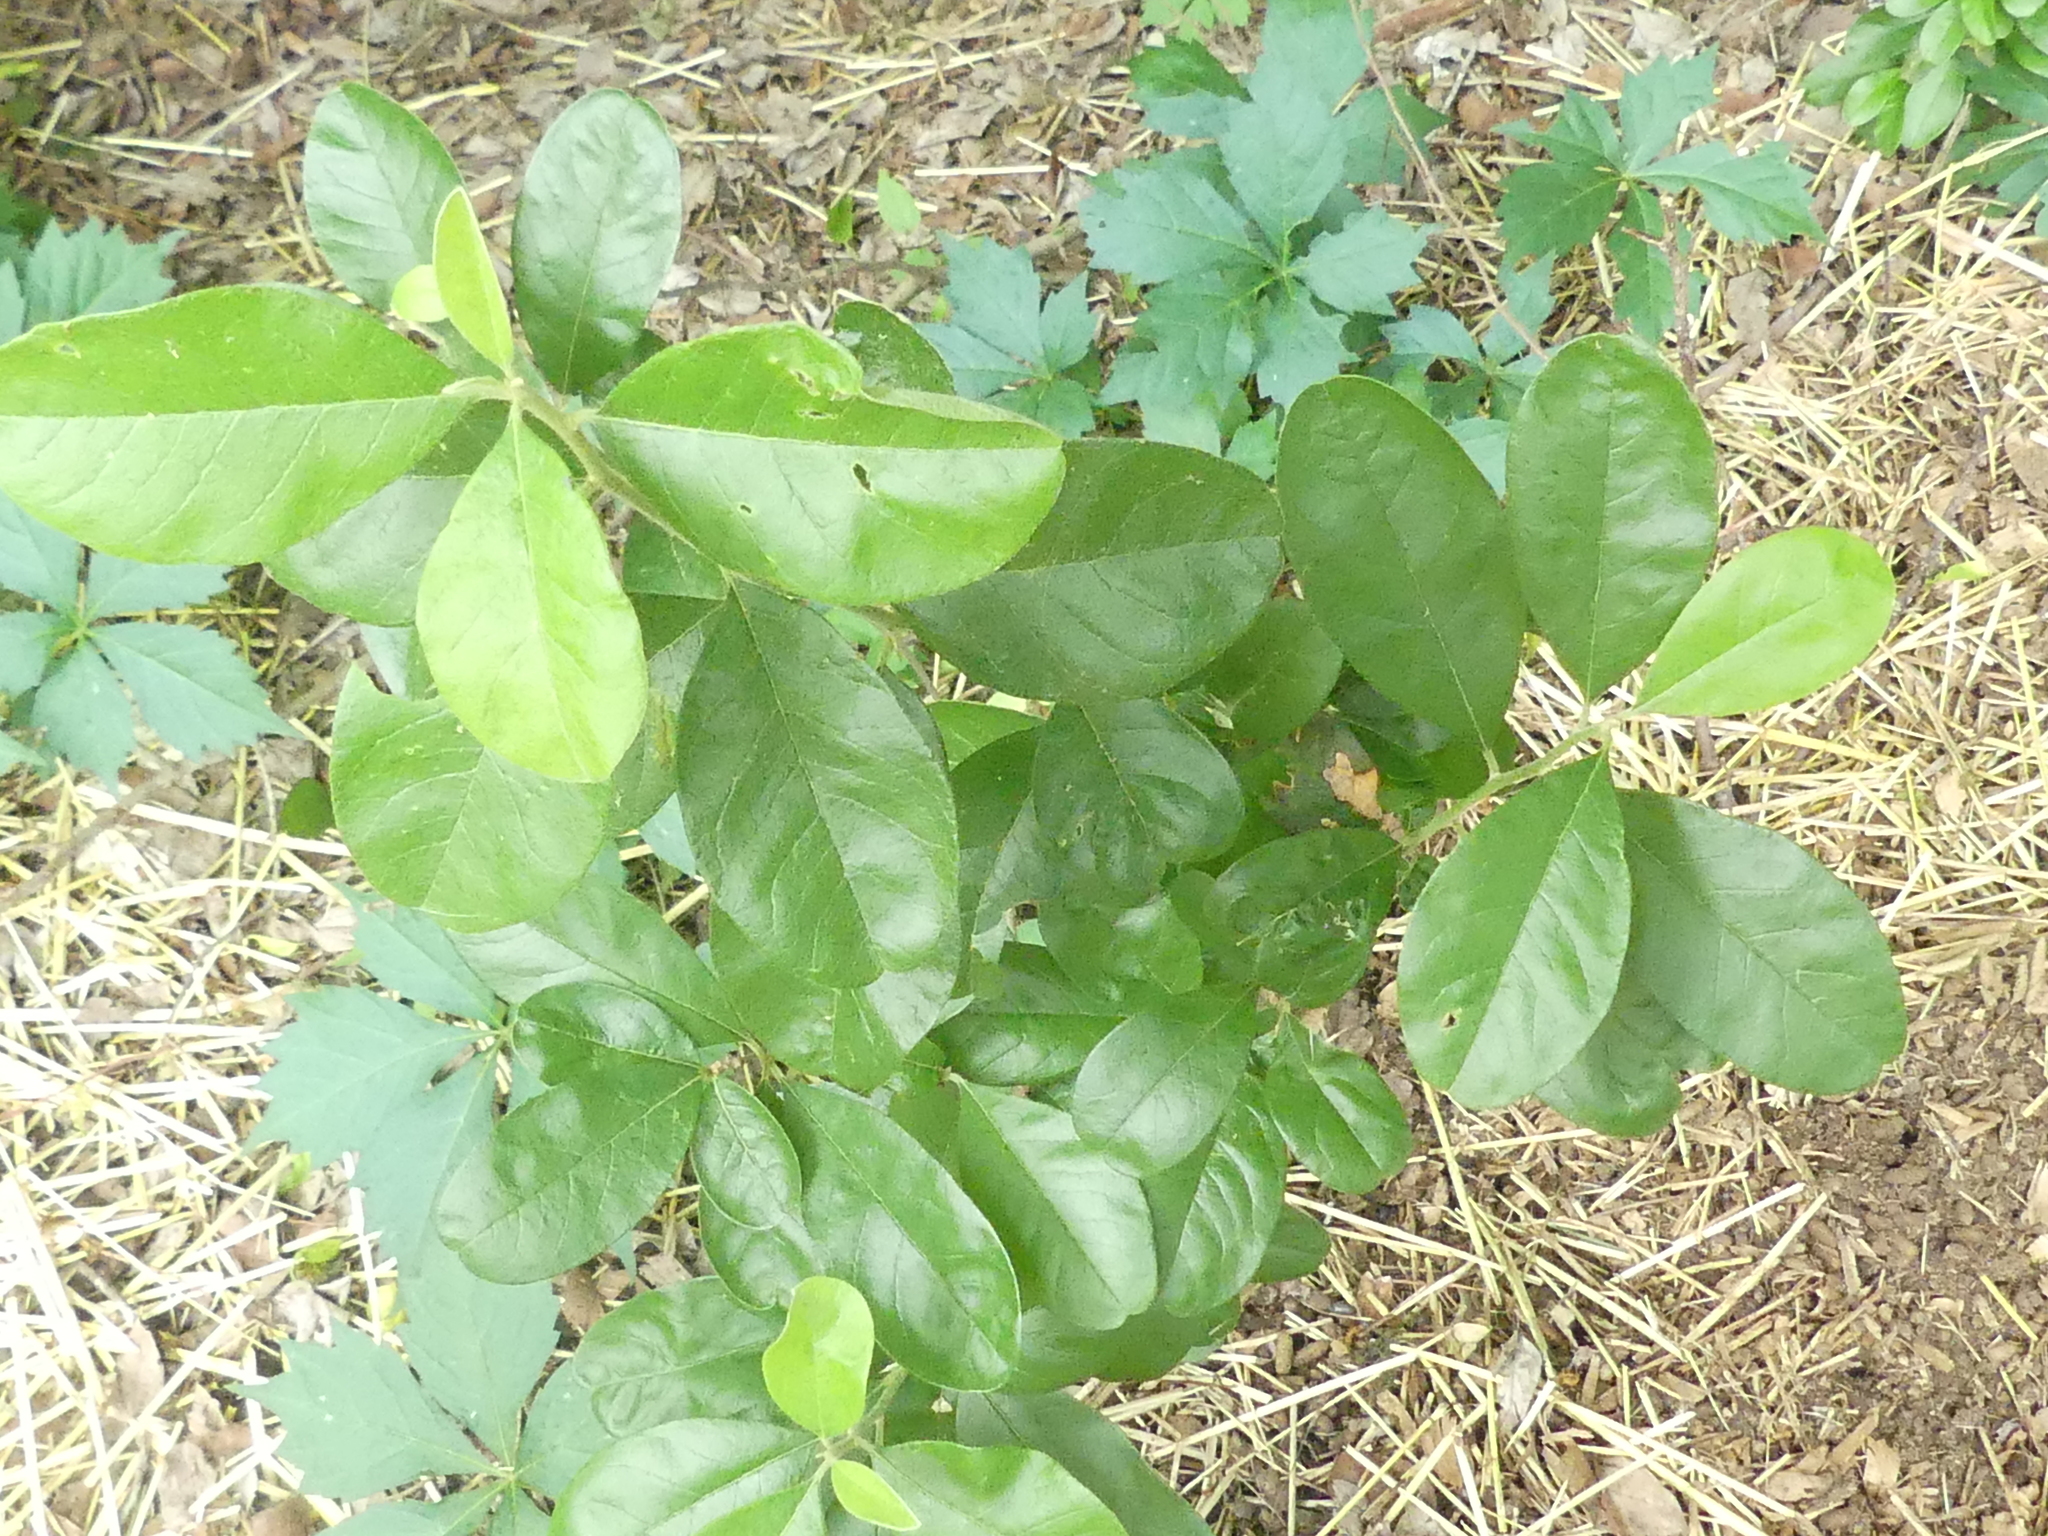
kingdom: Plantae
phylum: Tracheophyta
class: Magnoliopsida
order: Ericales
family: Sapotaceae
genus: Sideroxylon
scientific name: Sideroxylon lanuginosum
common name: Chittamwood
